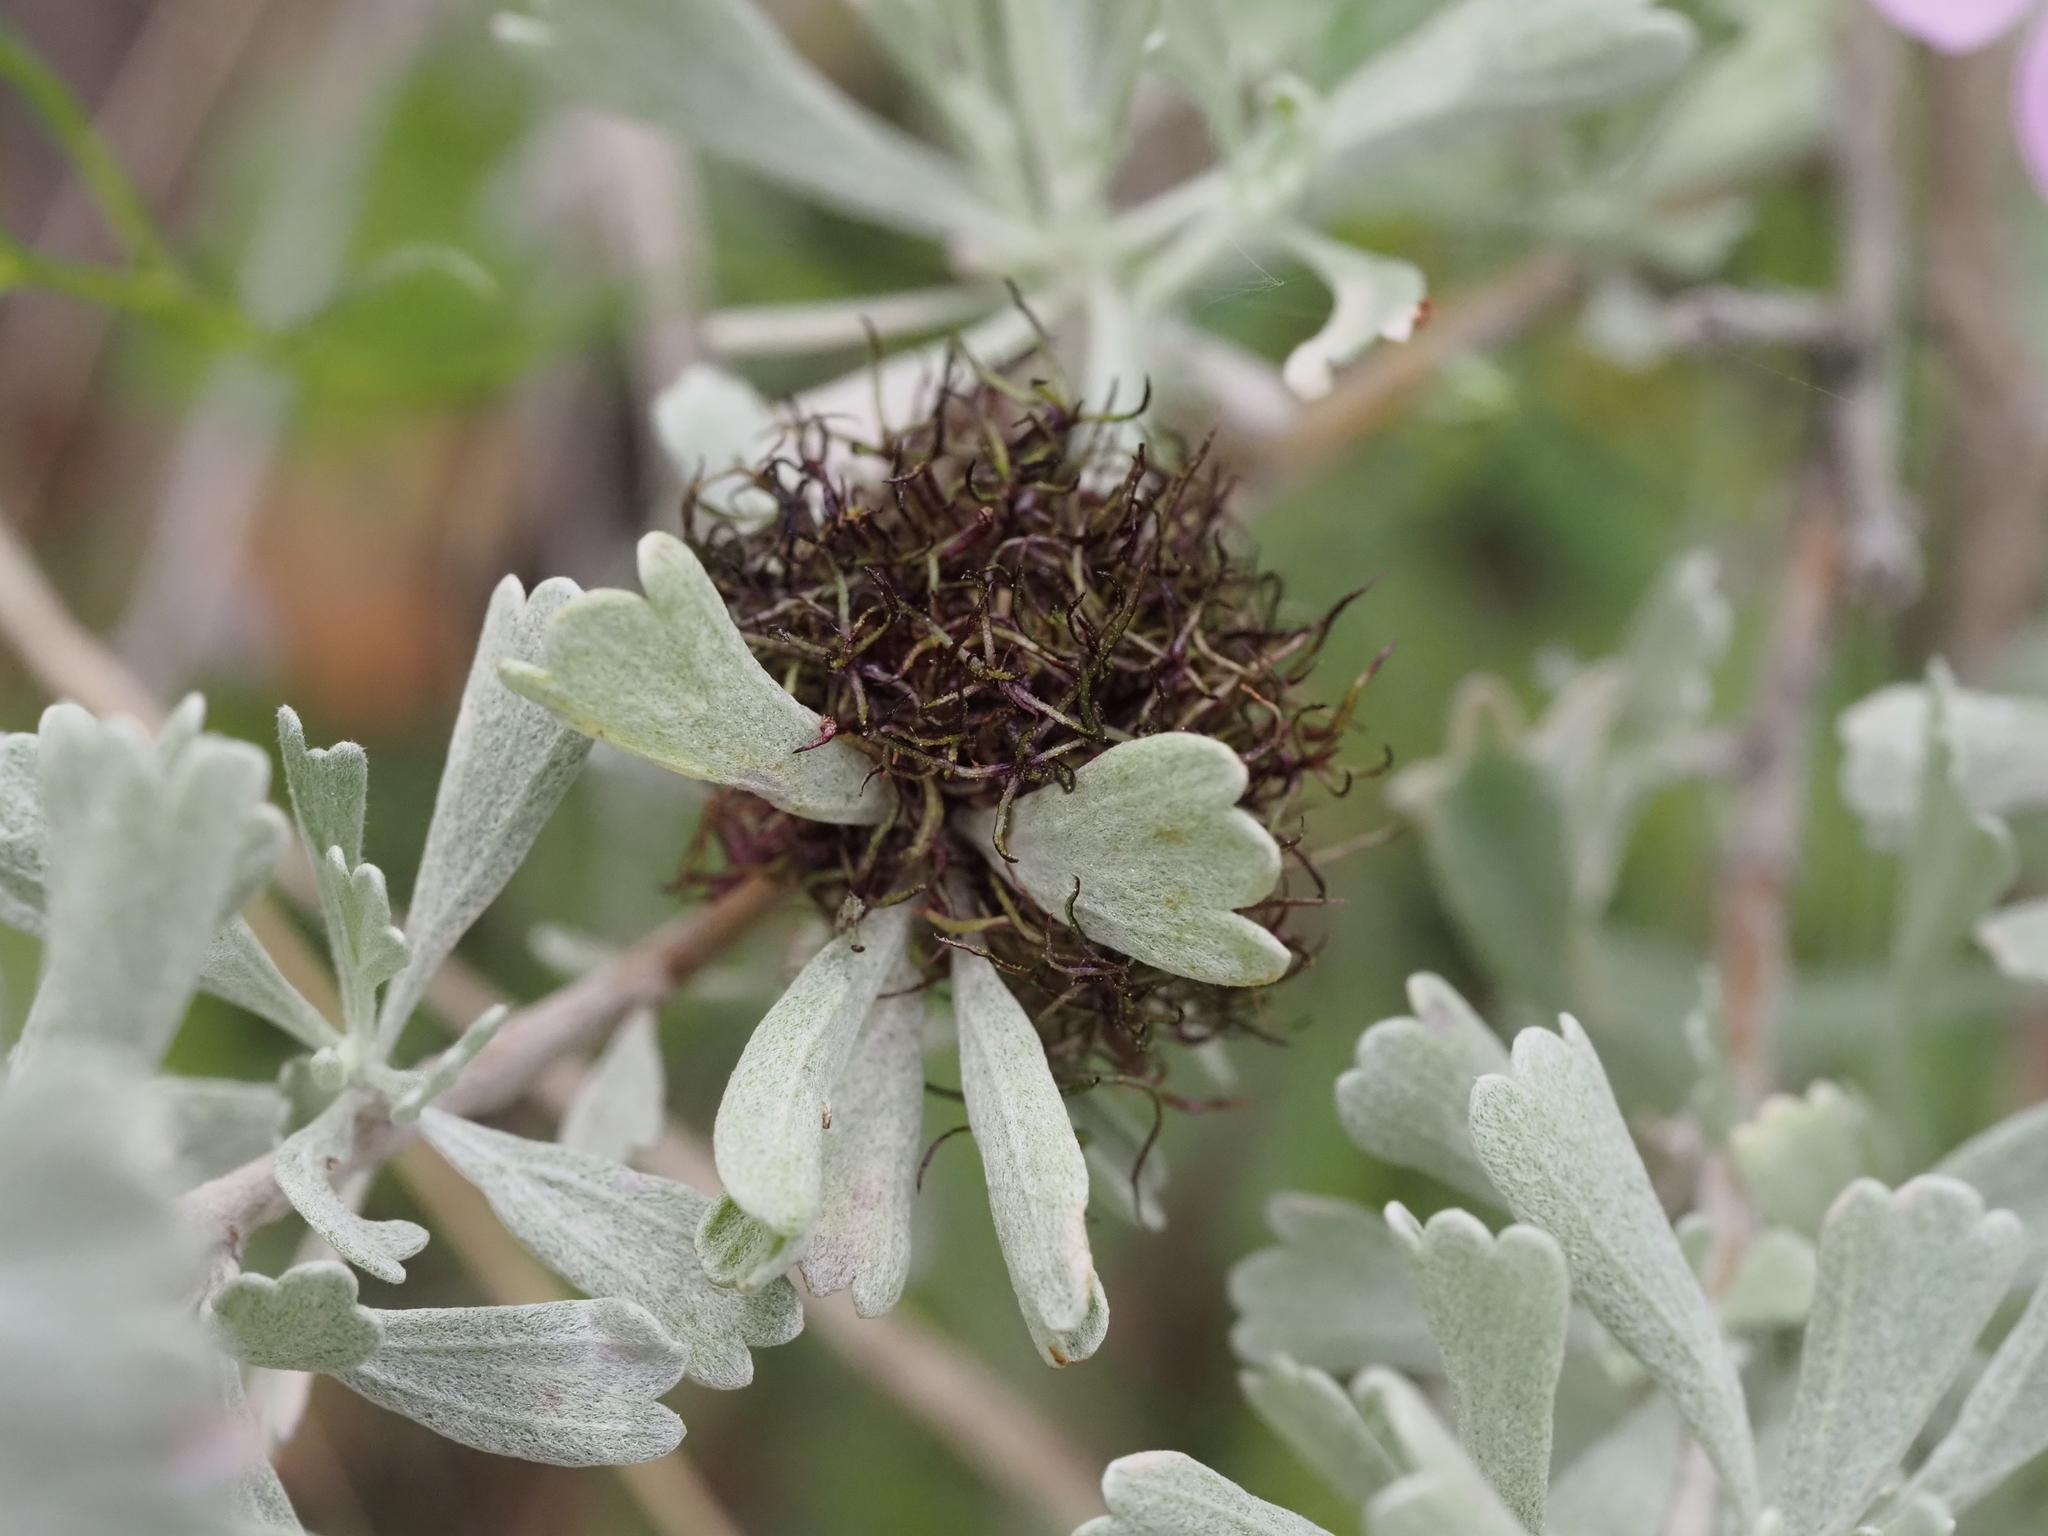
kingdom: Animalia
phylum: Arthropoda
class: Insecta
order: Diptera
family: Cecidomyiidae
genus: Rhopalomyia
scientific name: Rhopalomyia medusa
